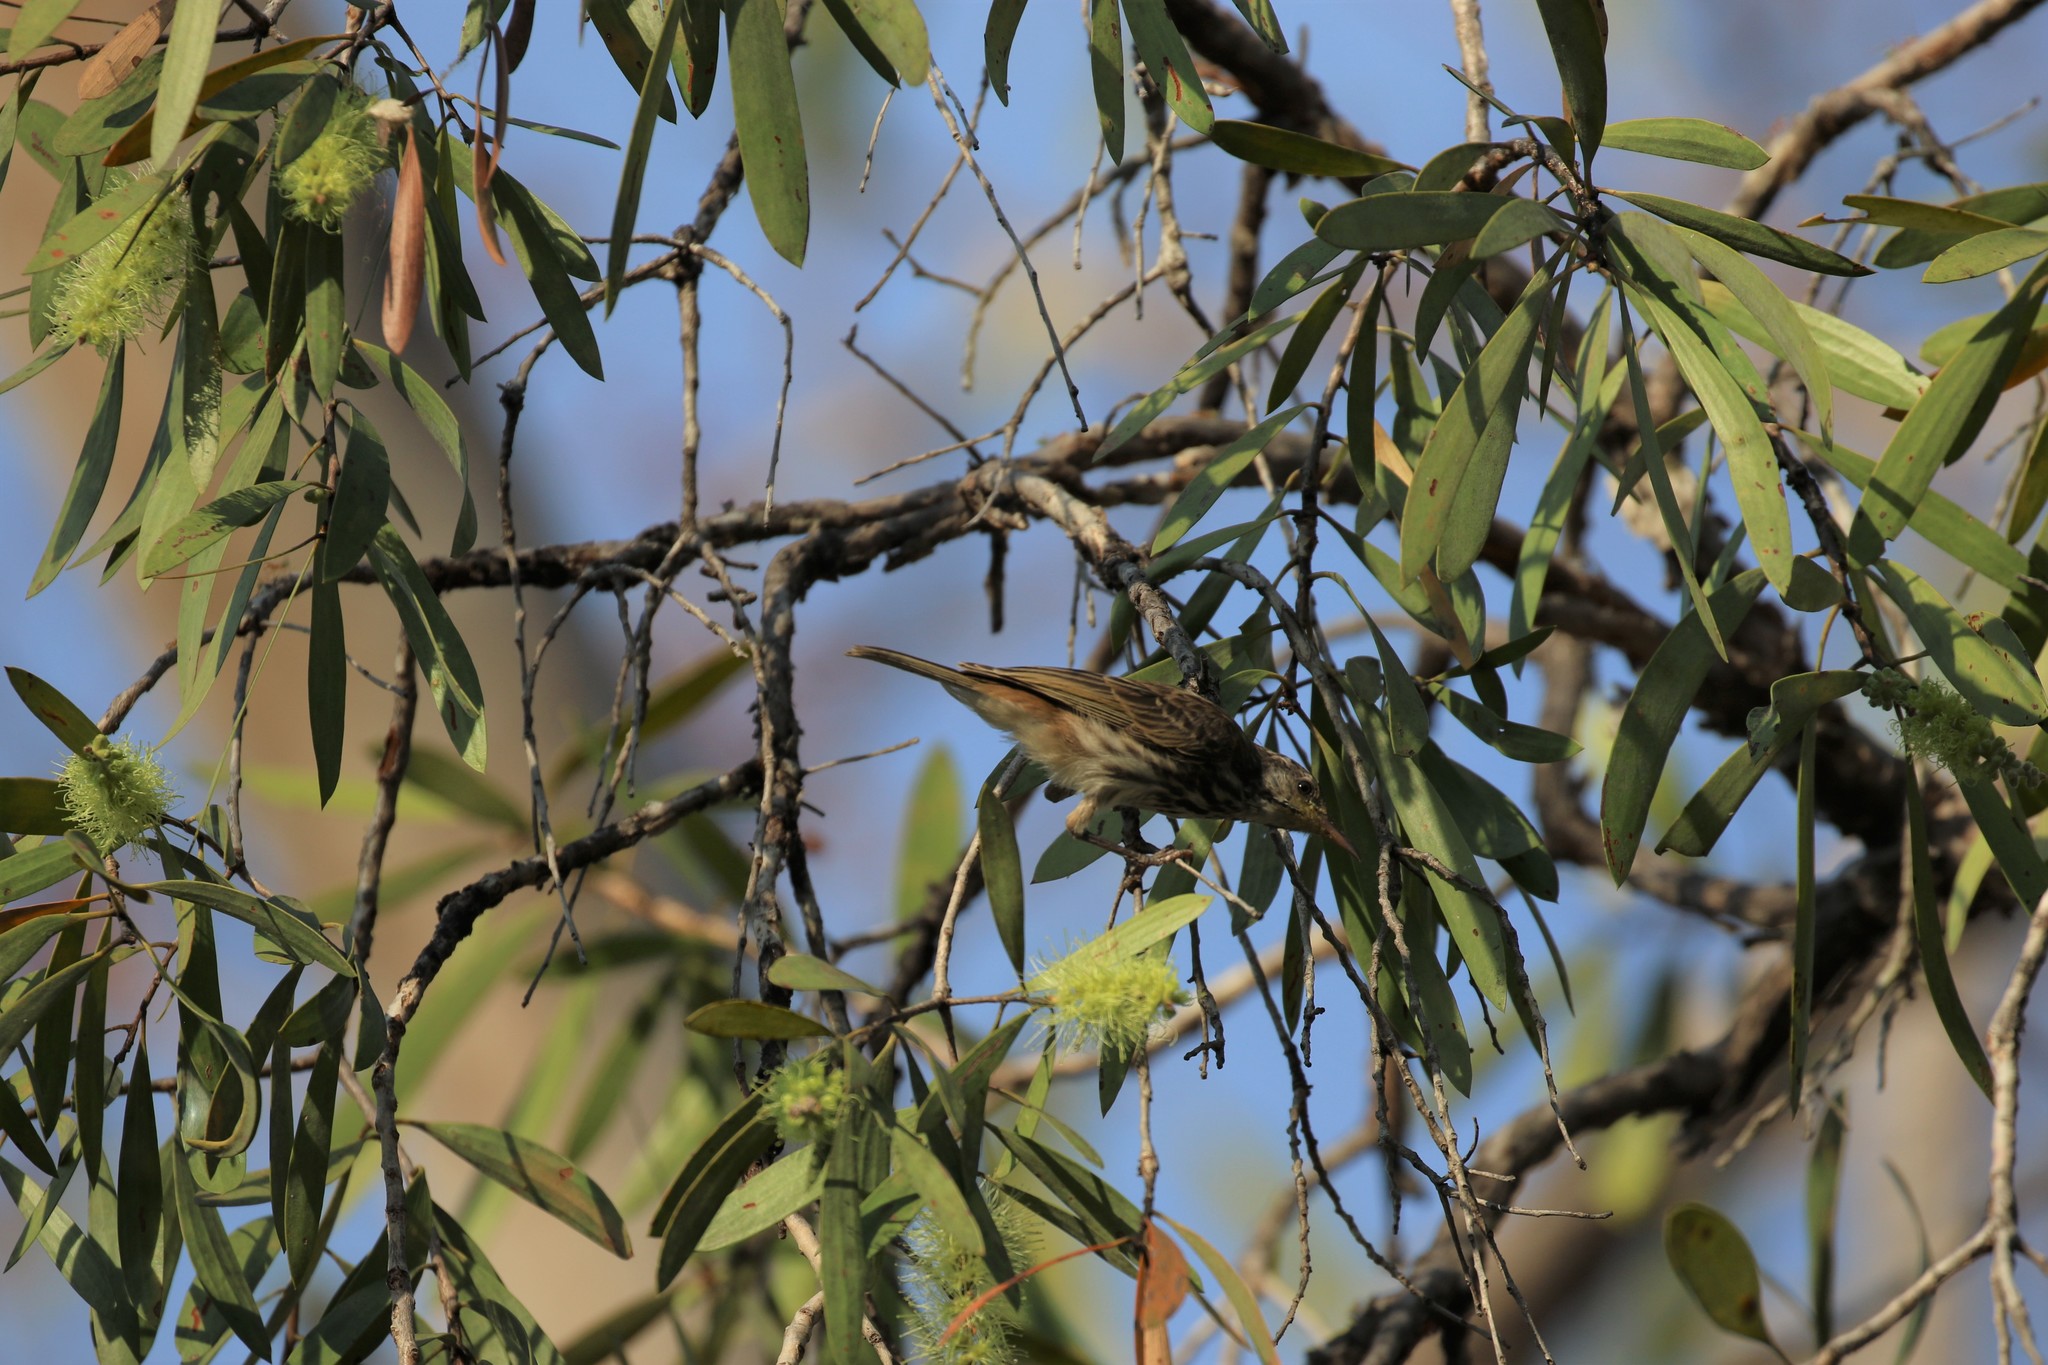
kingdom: Animalia
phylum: Chordata
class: Aves
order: Passeriformes
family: Meliphagidae
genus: Ramsayornis
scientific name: Ramsayornis fasciatus
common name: Bar-breasted honeyeater
